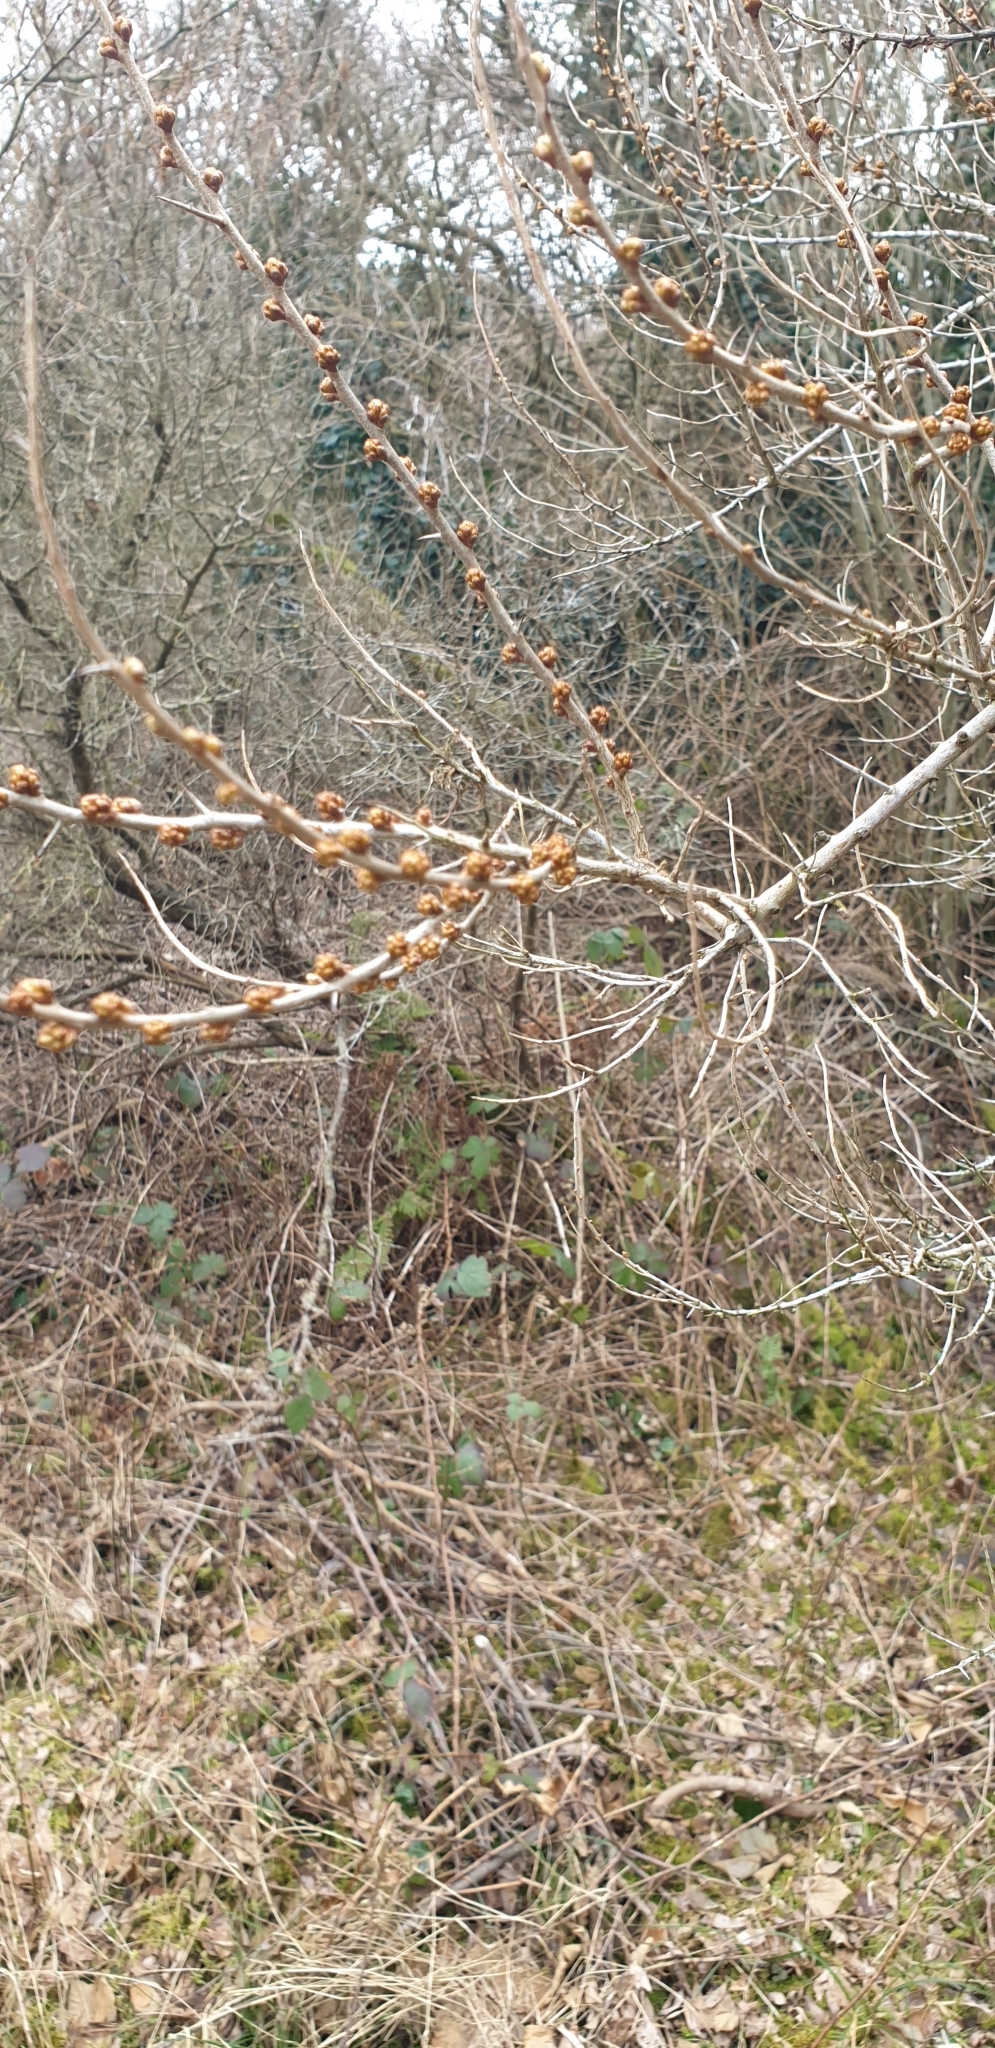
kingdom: Plantae
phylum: Tracheophyta
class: Magnoliopsida
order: Rosales
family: Elaeagnaceae
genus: Hippophae
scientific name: Hippophae rhamnoides
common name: Sea-buckthorn
